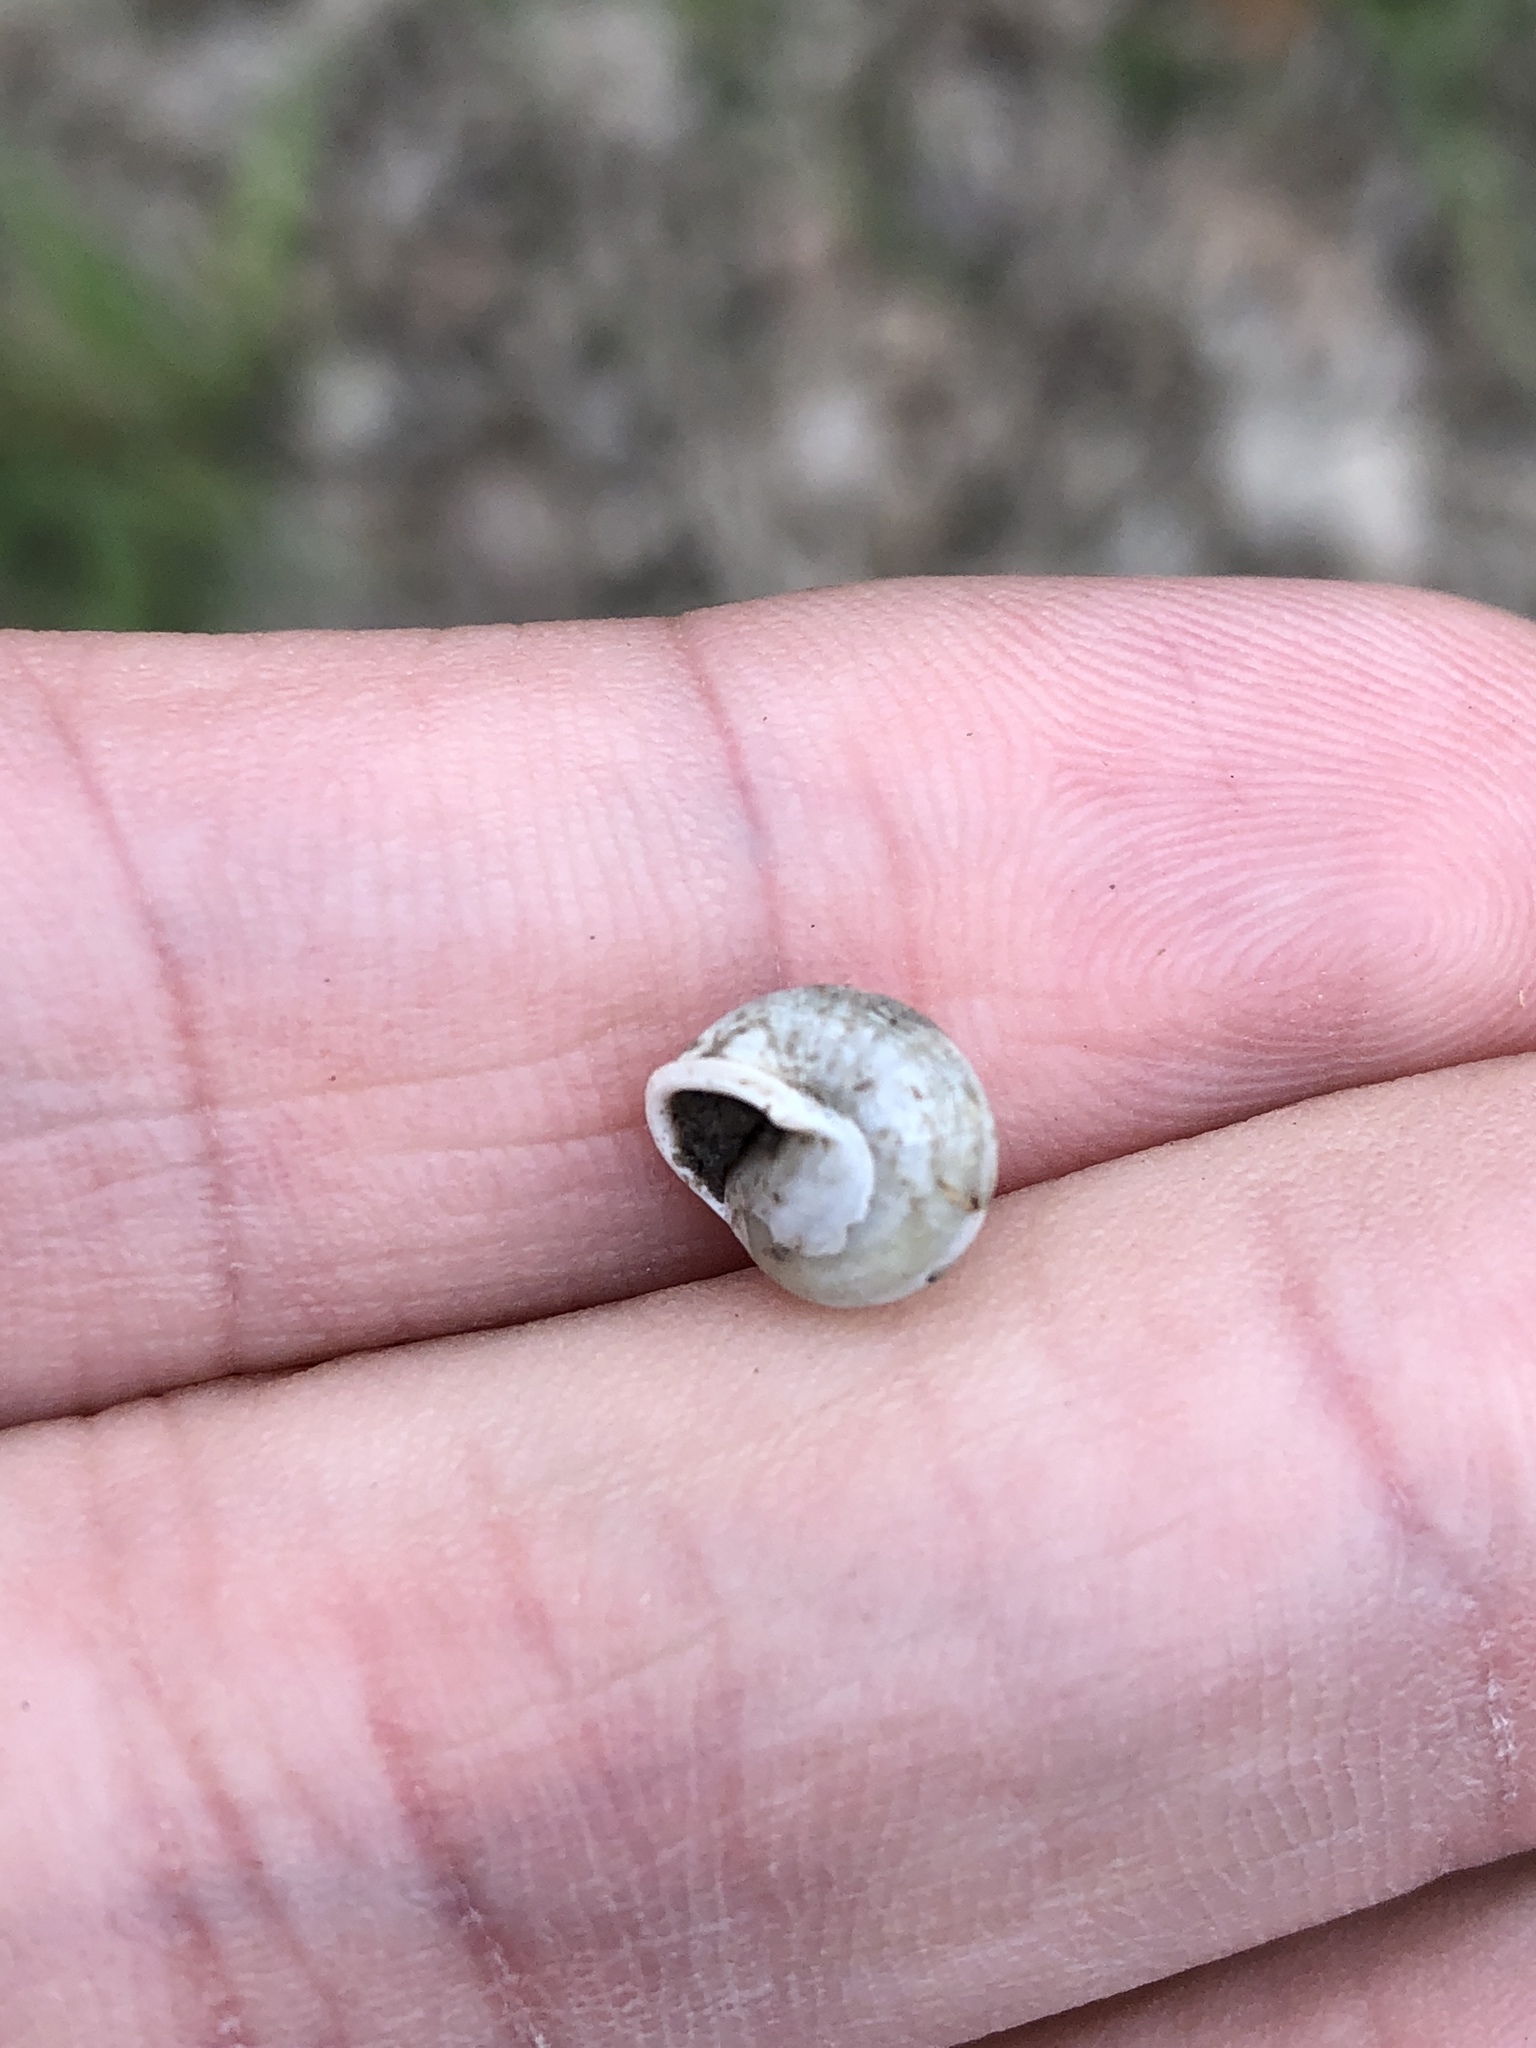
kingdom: Animalia
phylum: Mollusca
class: Gastropoda
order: Cycloneritida
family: Helicinidae
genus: Helicina
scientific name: Helicina orbiculata
